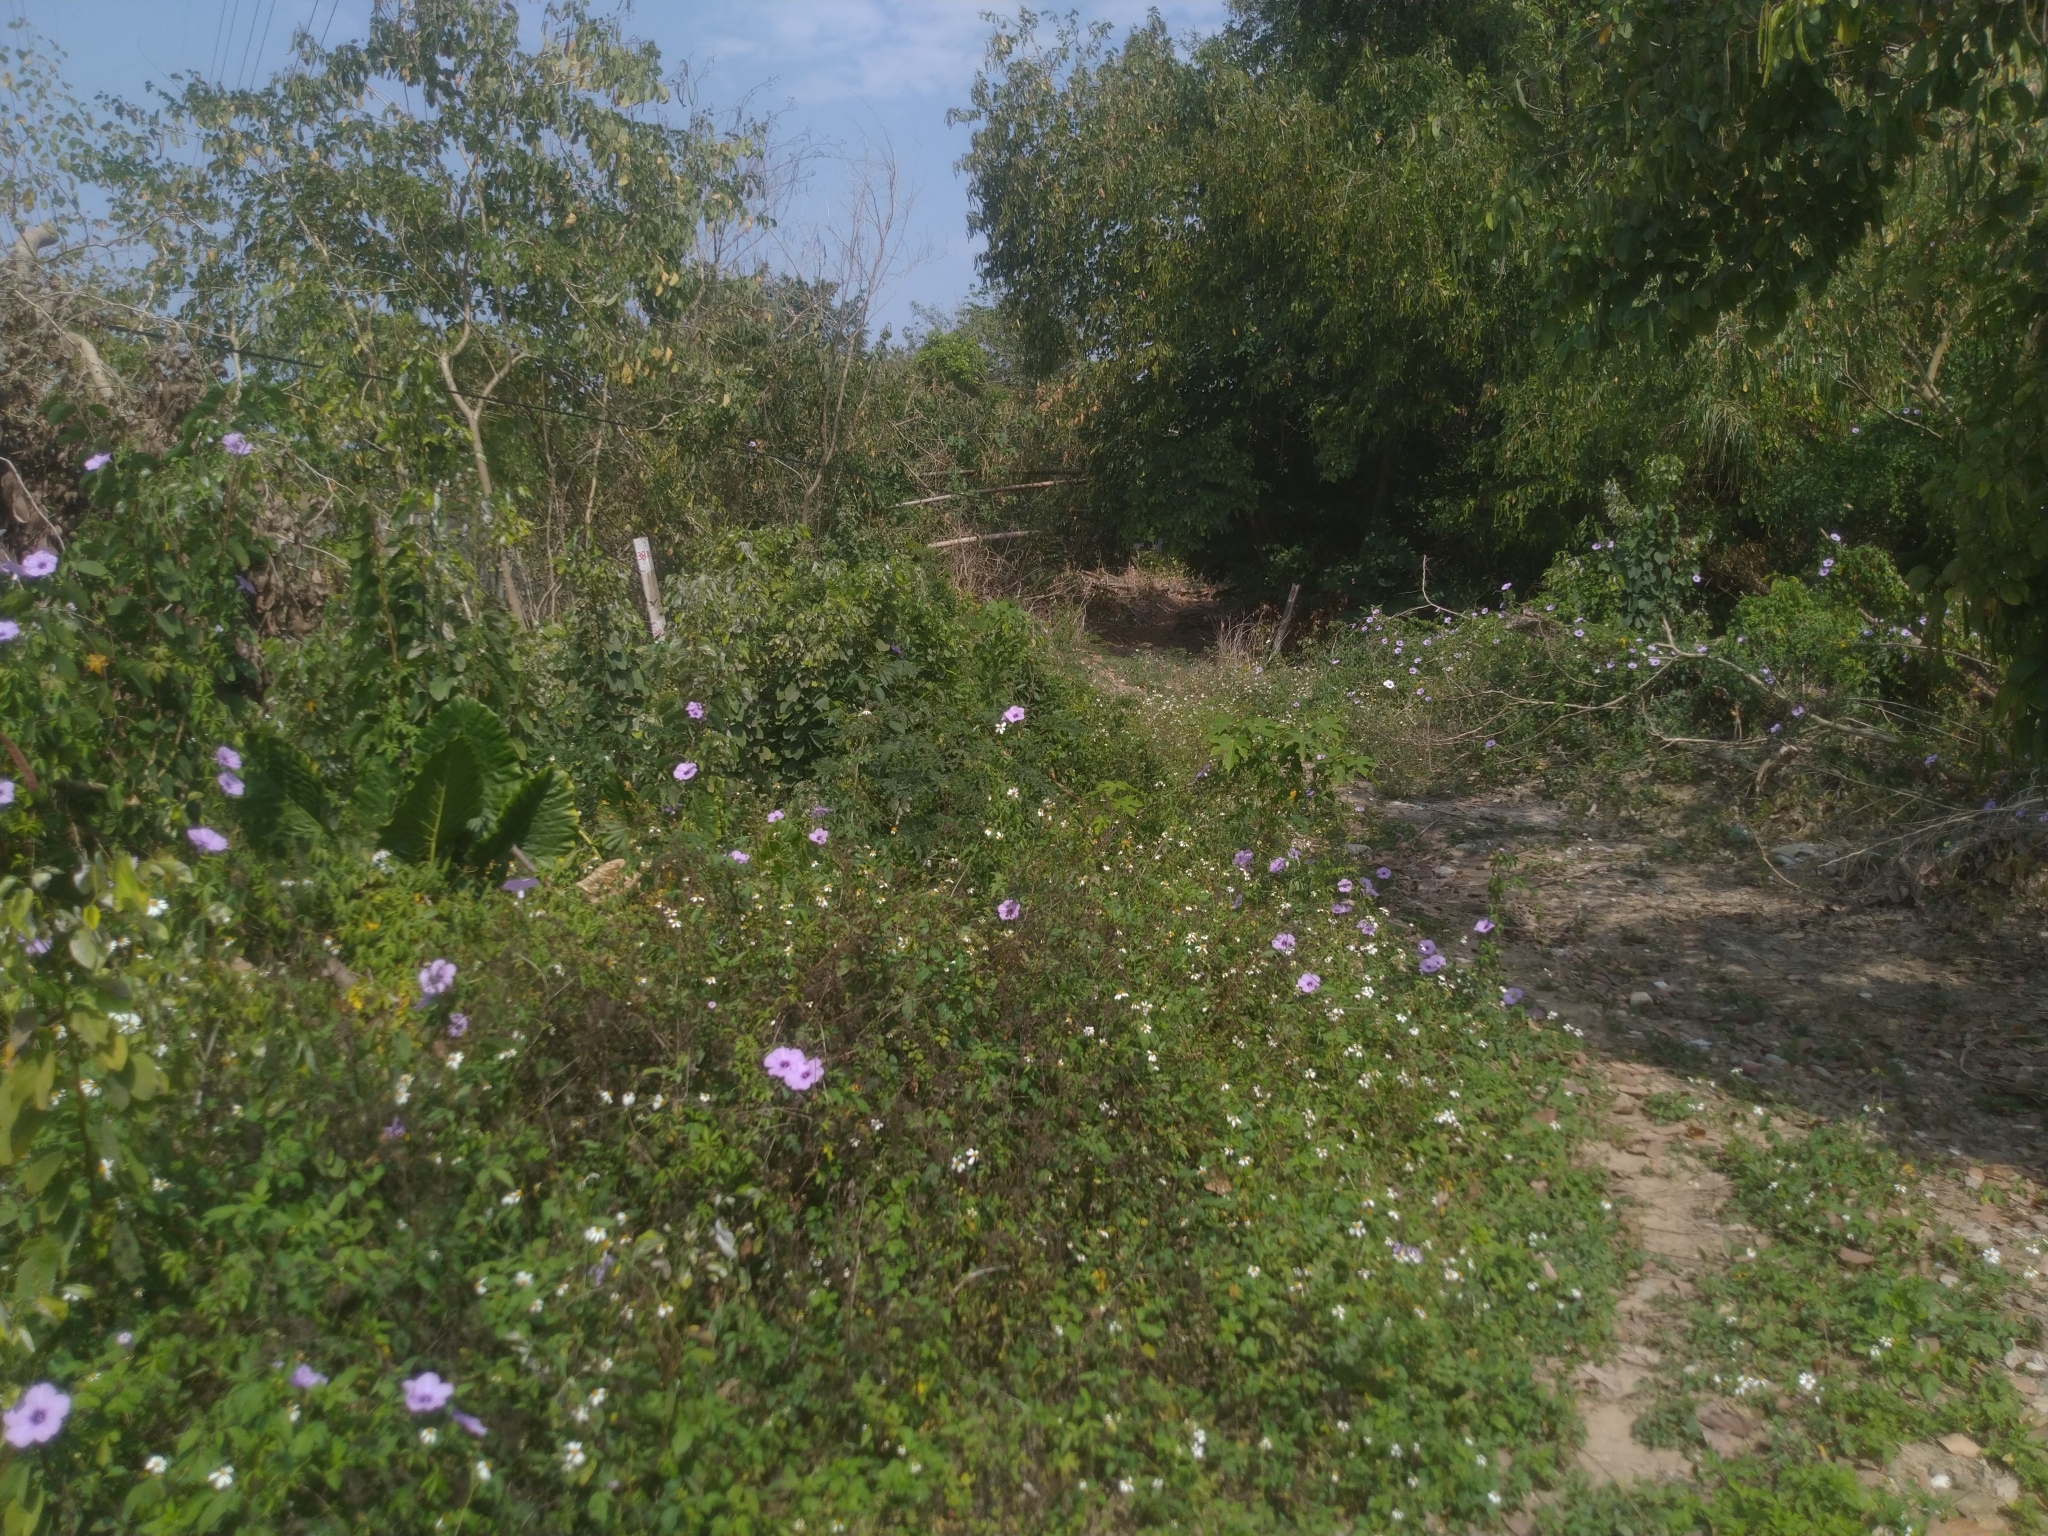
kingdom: Plantae
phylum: Tracheophyta
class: Magnoliopsida
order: Solanales
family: Convolvulaceae
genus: Ipomoea
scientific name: Ipomoea cairica
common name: Mile a minute vine
